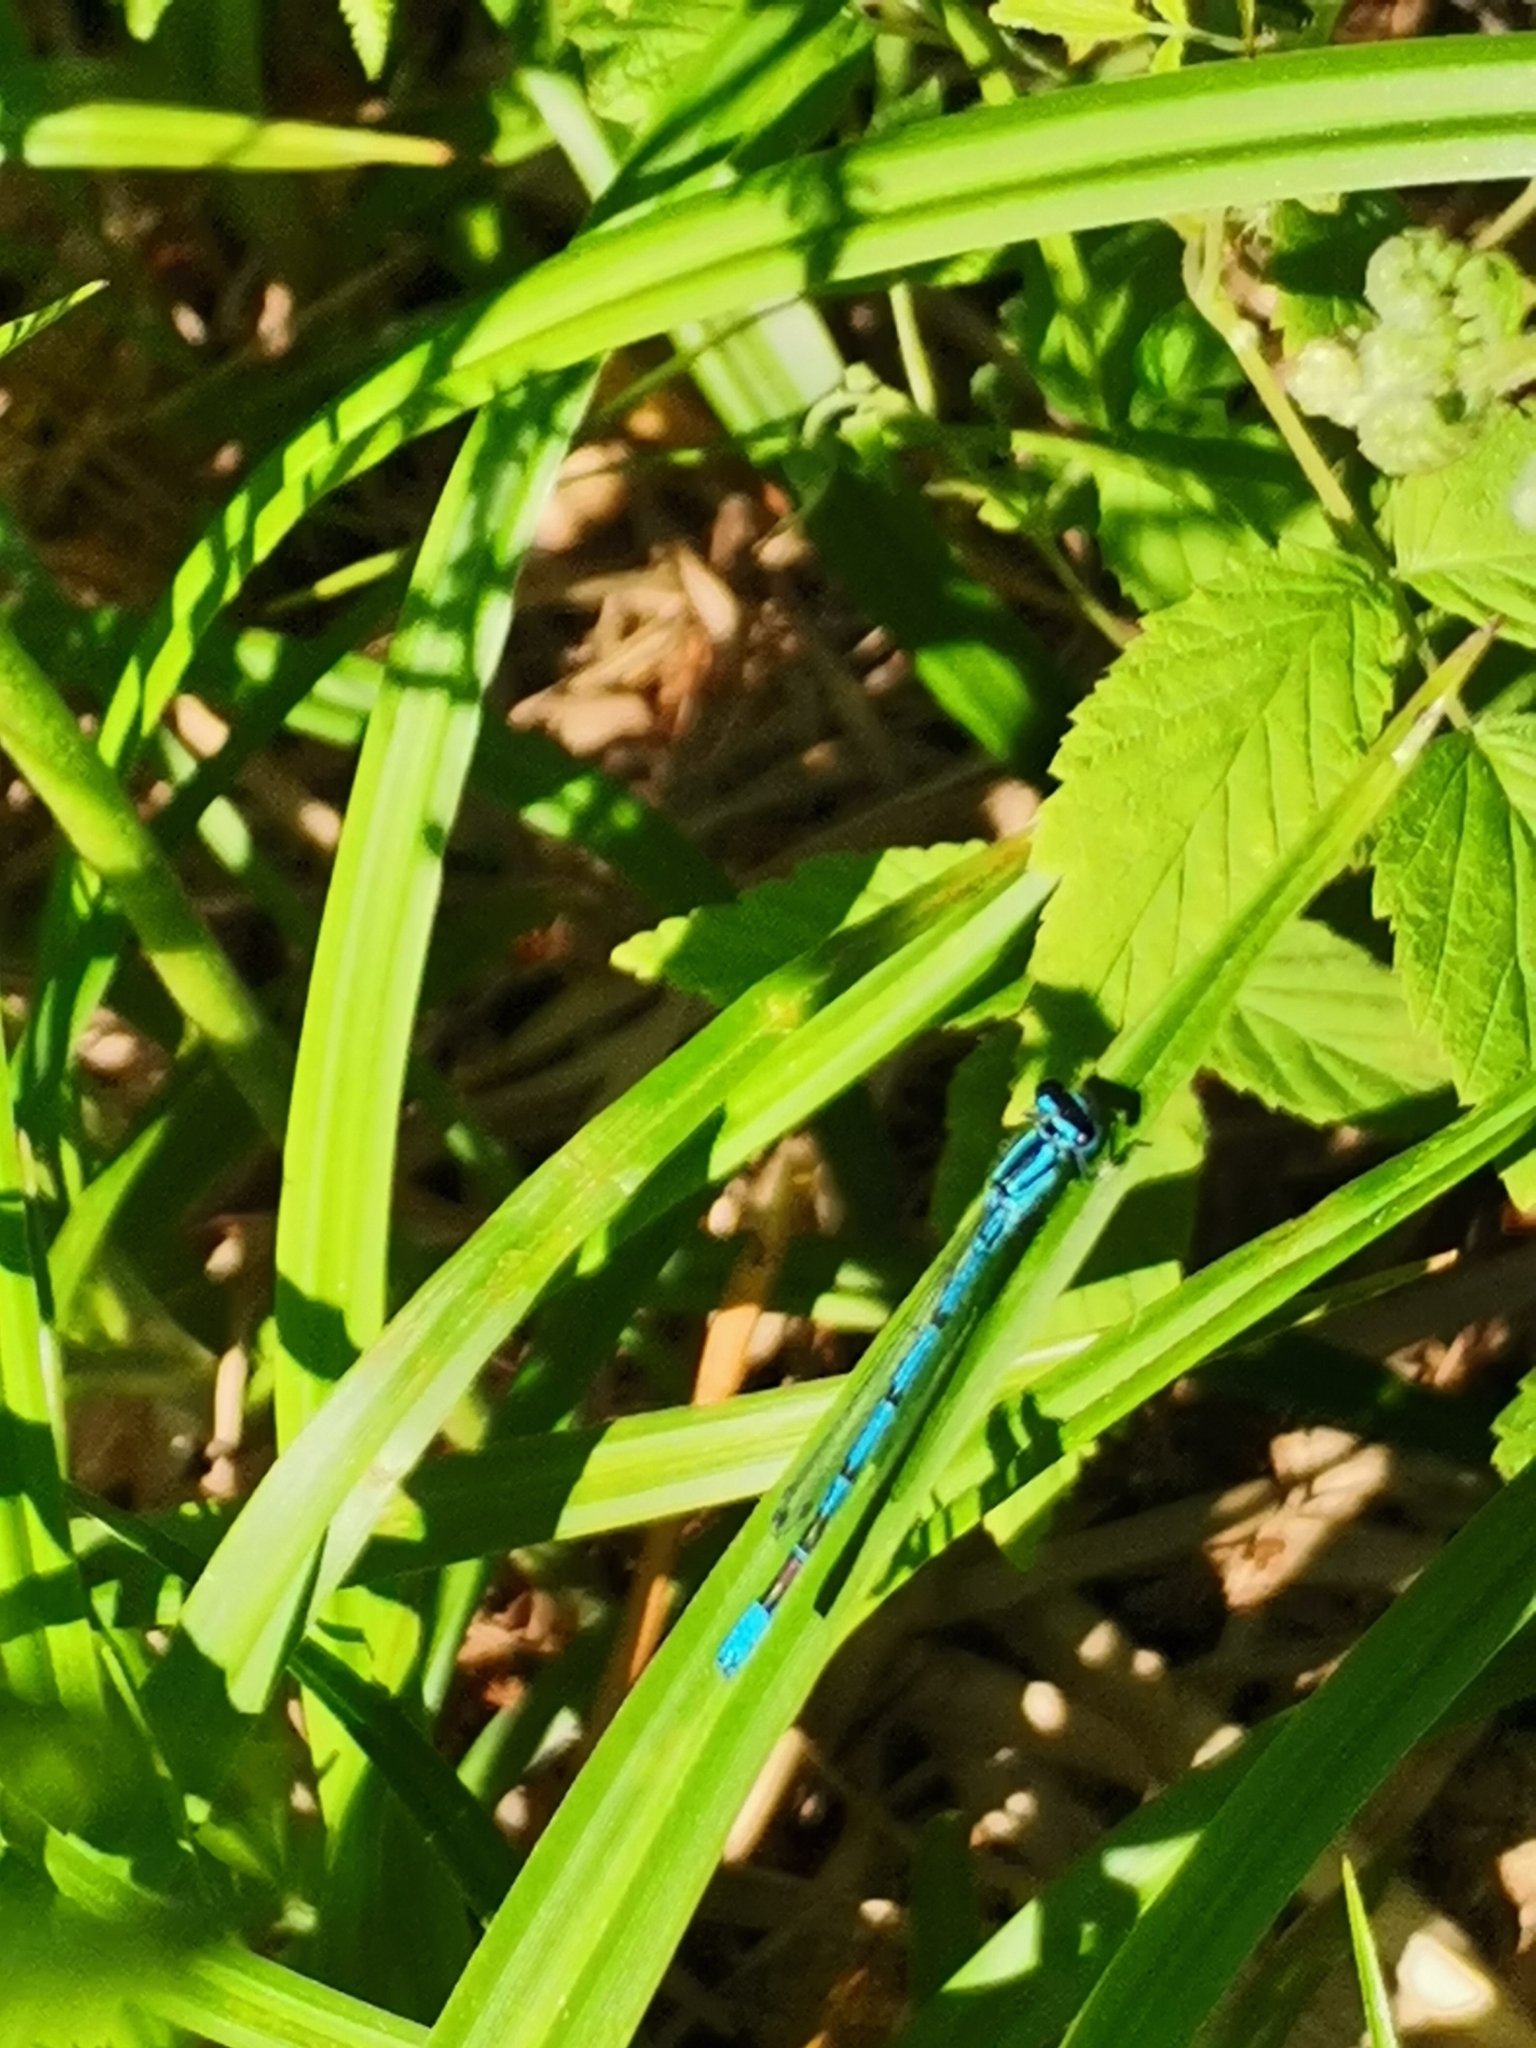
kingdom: Animalia
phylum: Arthropoda
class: Insecta
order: Odonata
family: Coenagrionidae
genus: Coenagrion
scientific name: Coenagrion puella
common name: Azure damselfly
